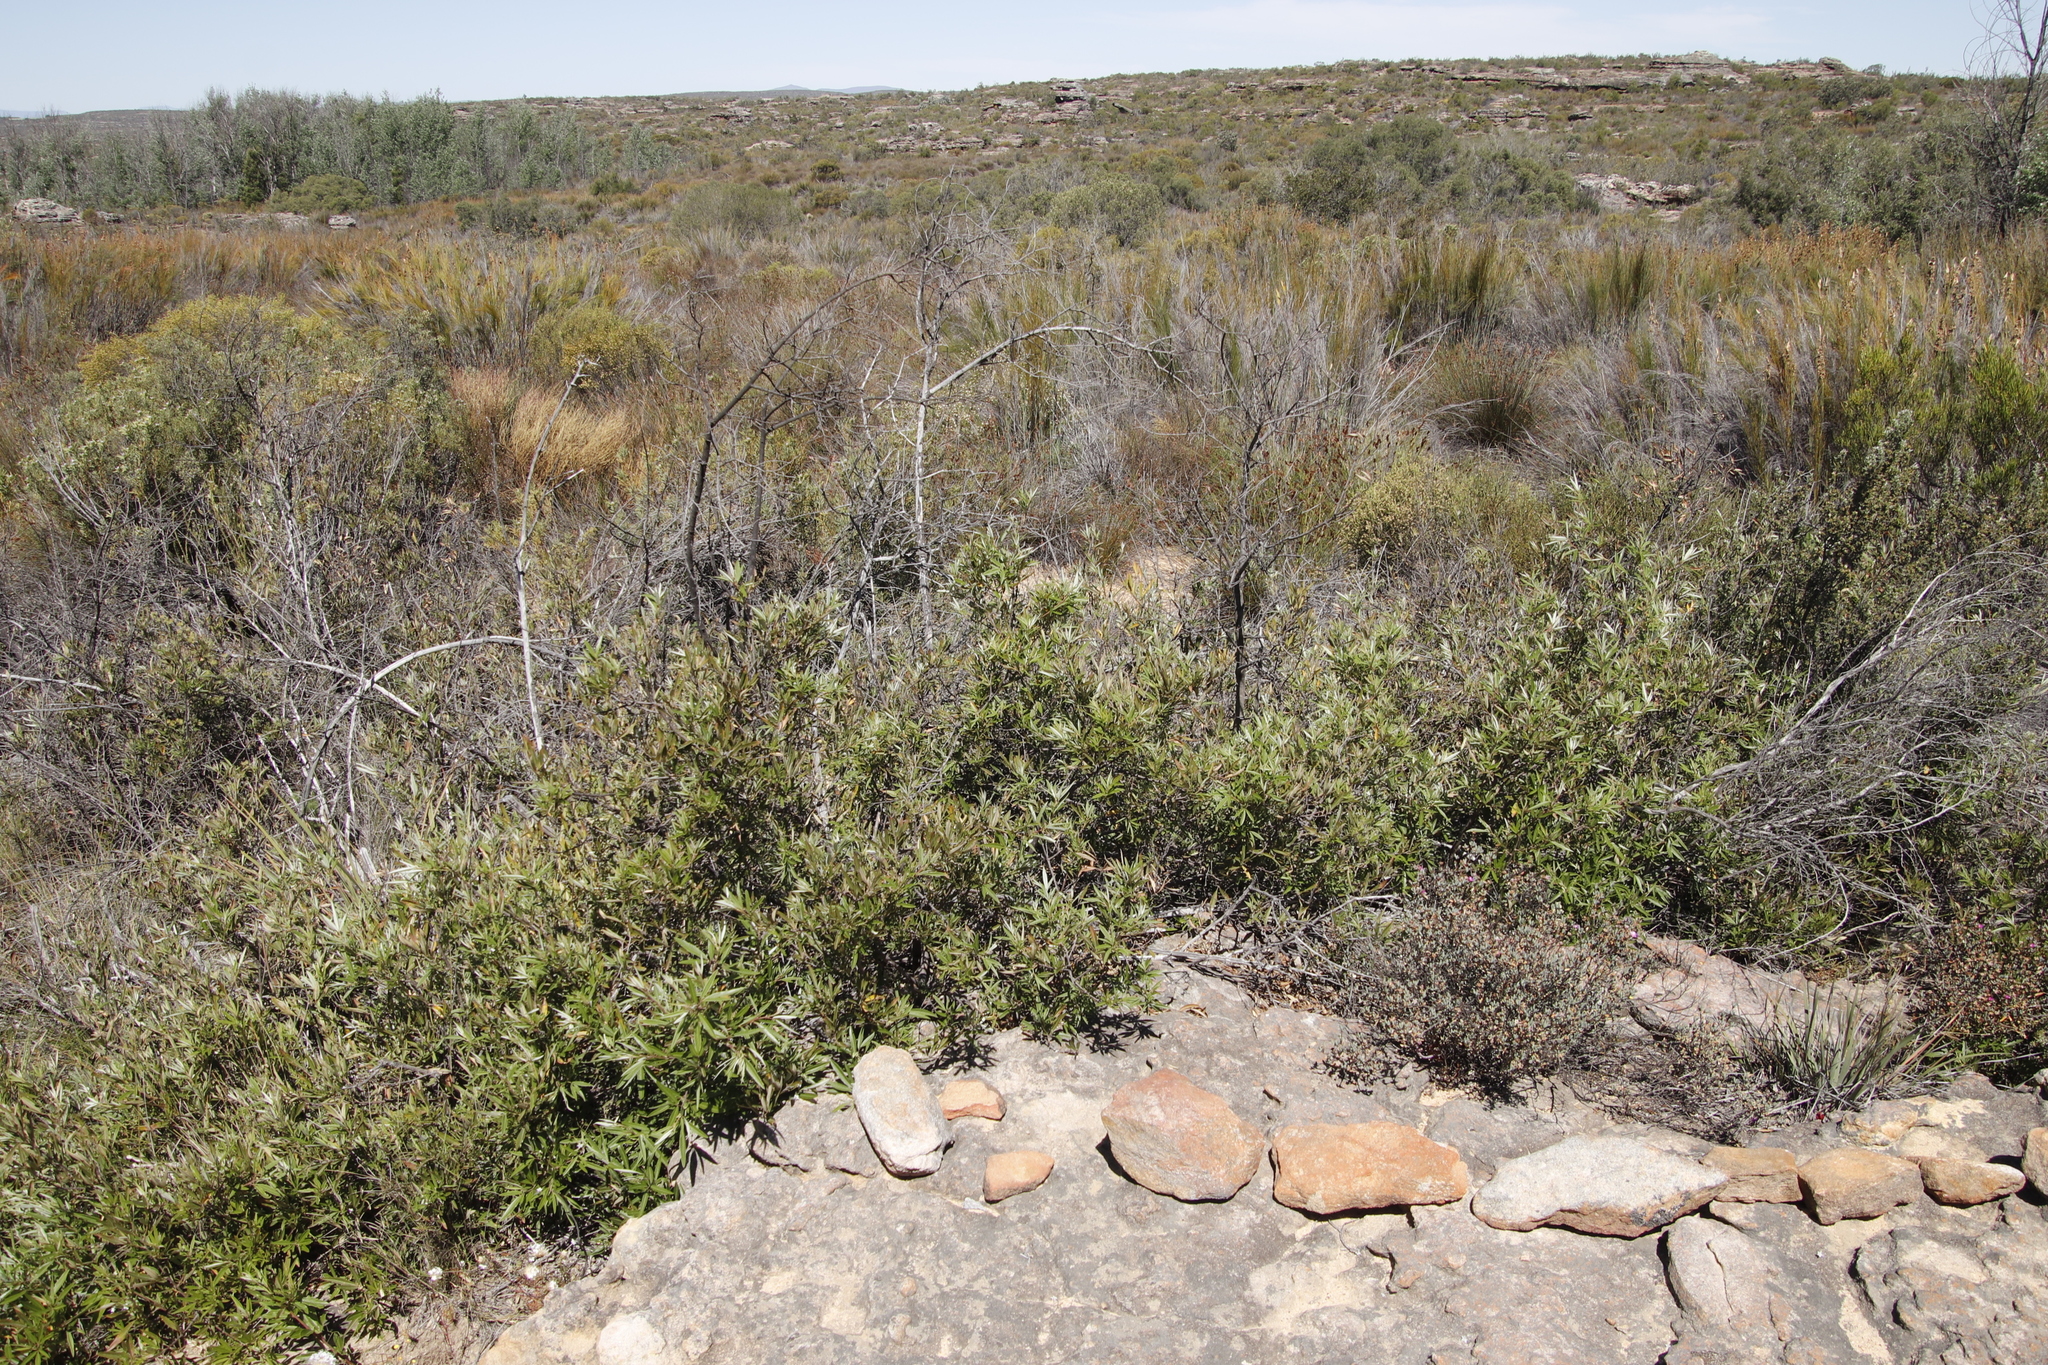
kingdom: Plantae
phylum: Tracheophyta
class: Magnoliopsida
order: Sapindales
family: Anacardiaceae
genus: Searsia
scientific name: Searsia angustifolia
